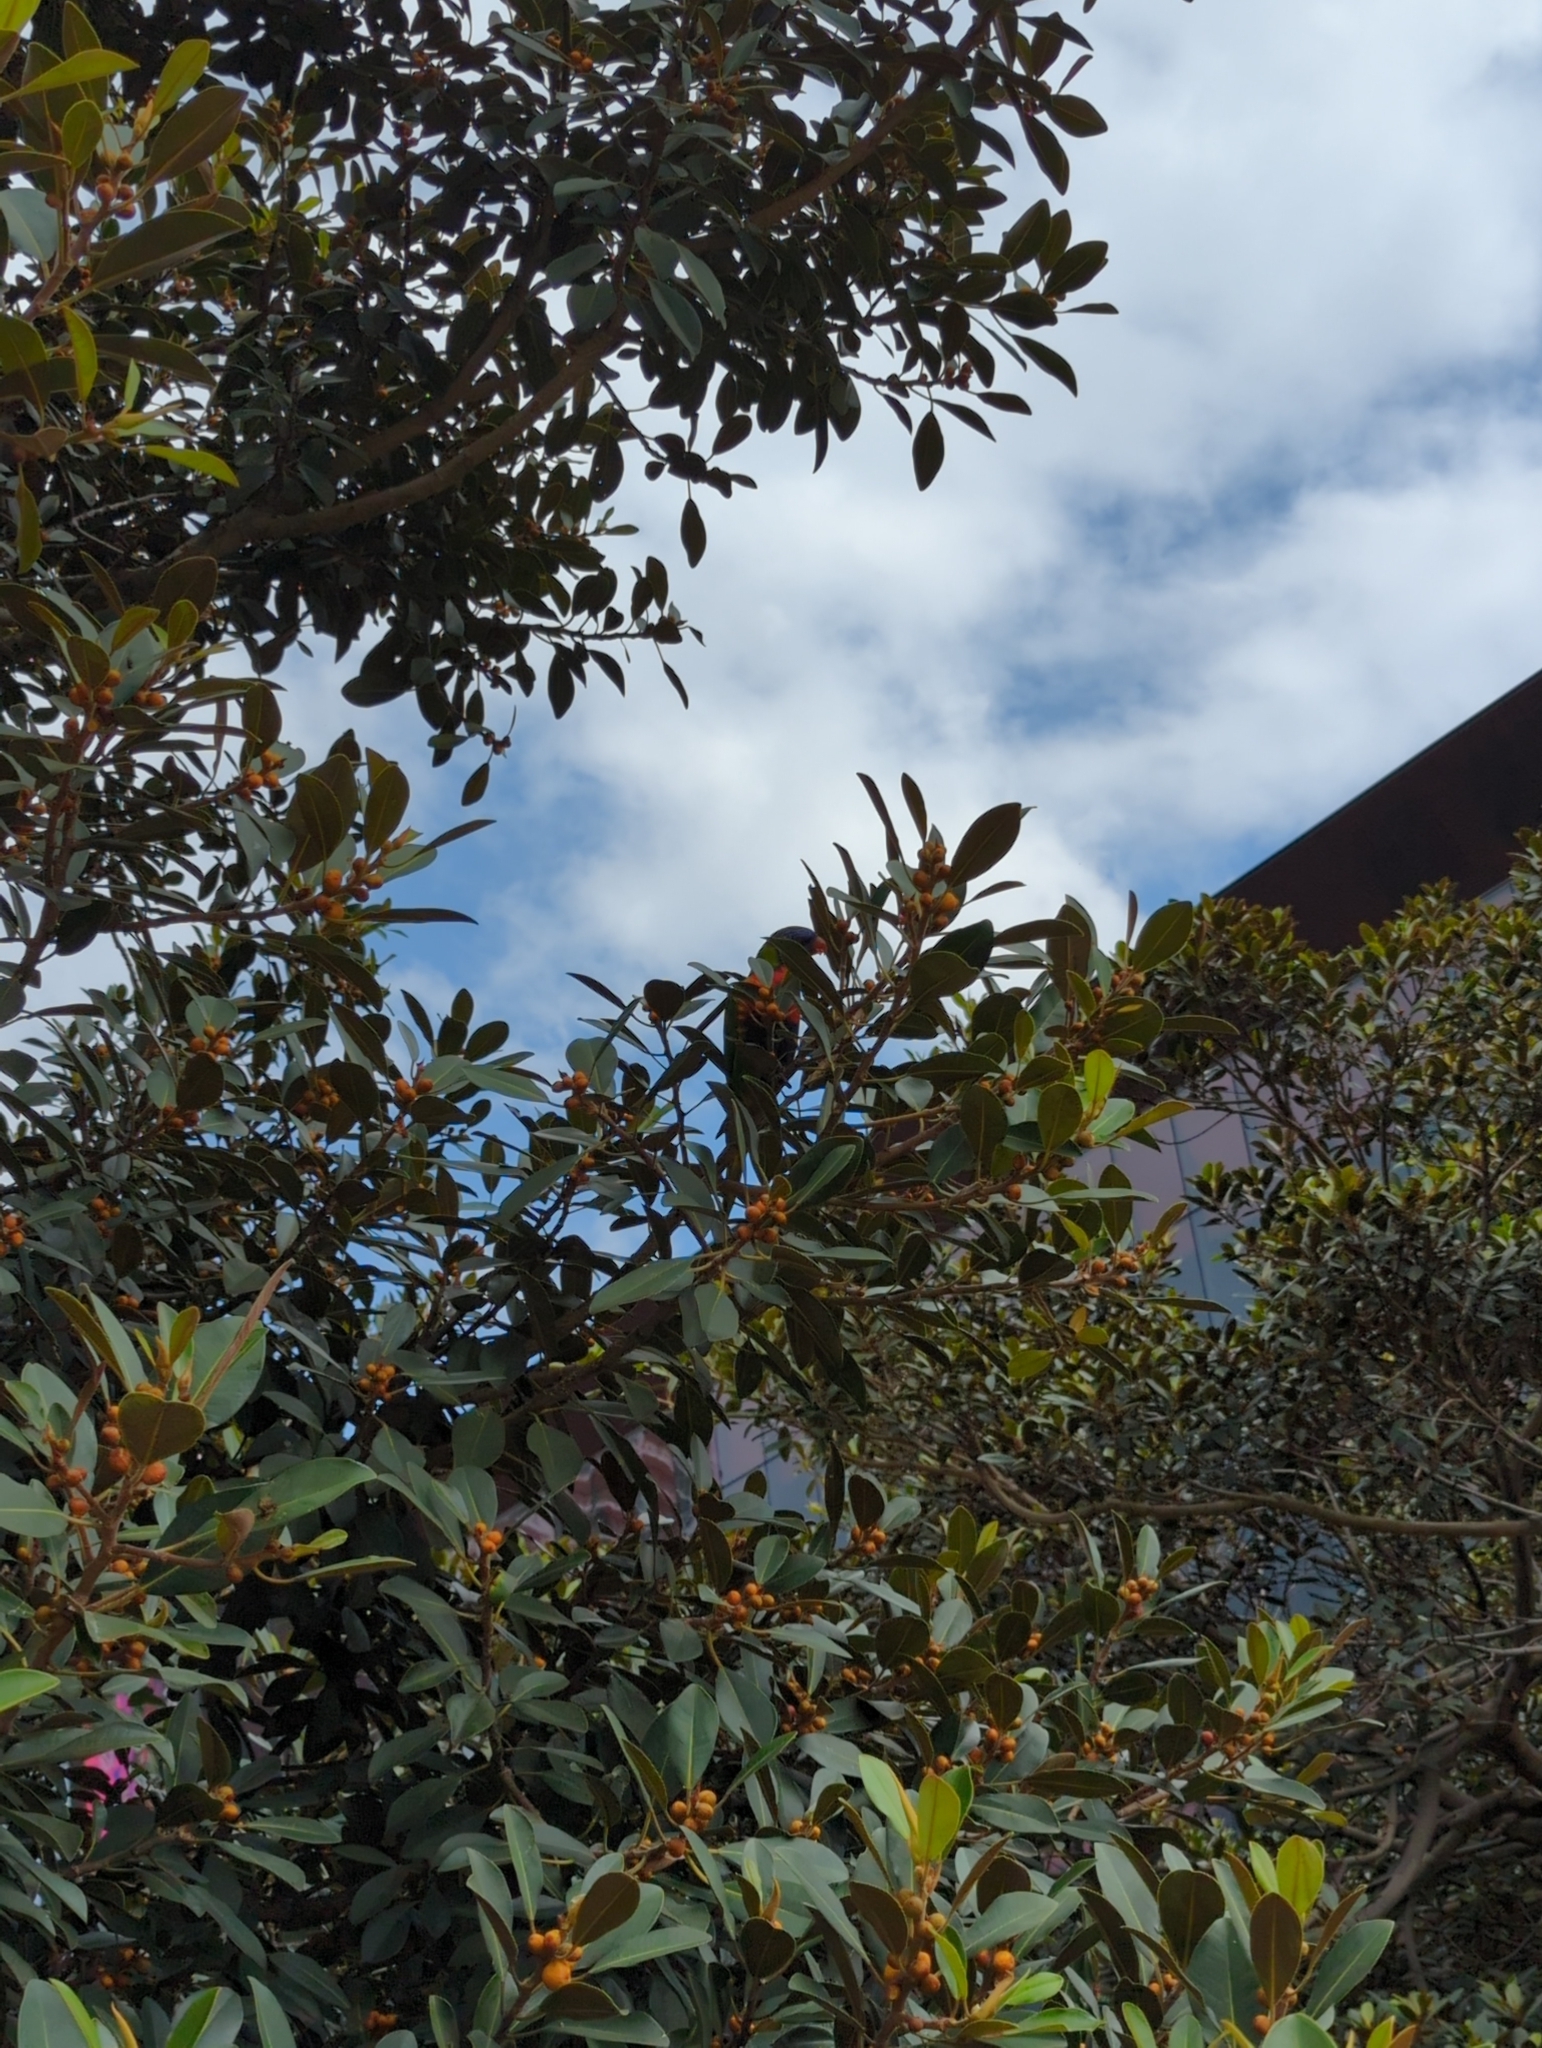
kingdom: Animalia
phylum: Chordata
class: Aves
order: Psittaciformes
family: Psittacidae
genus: Trichoglossus
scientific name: Trichoglossus haematodus
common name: Coconut lorikeet
